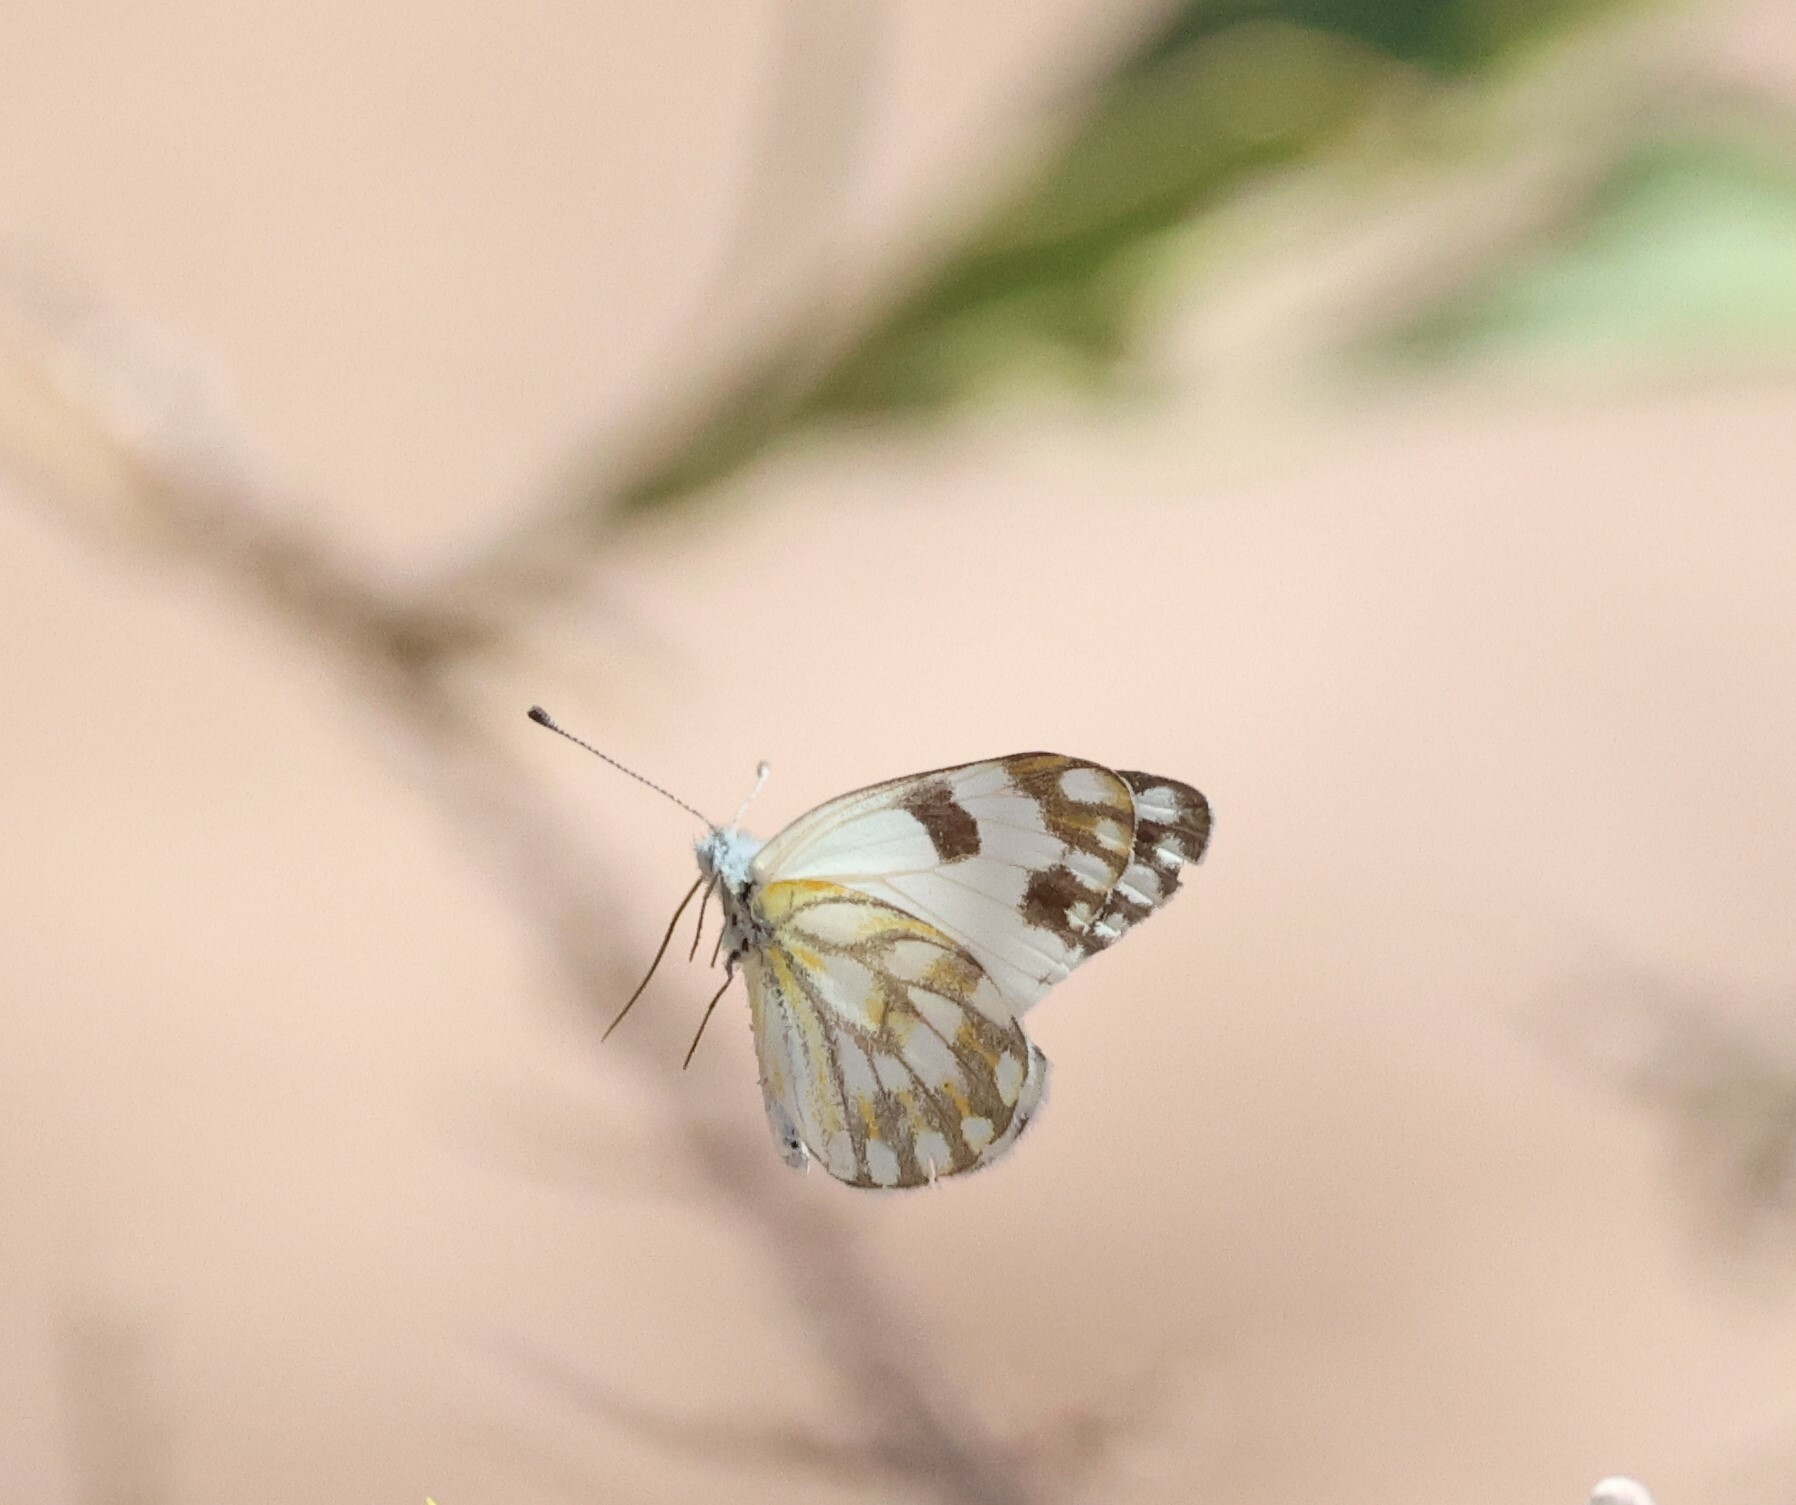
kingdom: Animalia
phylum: Arthropoda
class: Insecta
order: Lepidoptera
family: Pieridae
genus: Belenois
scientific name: Belenois aurota
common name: Brown-veined white
